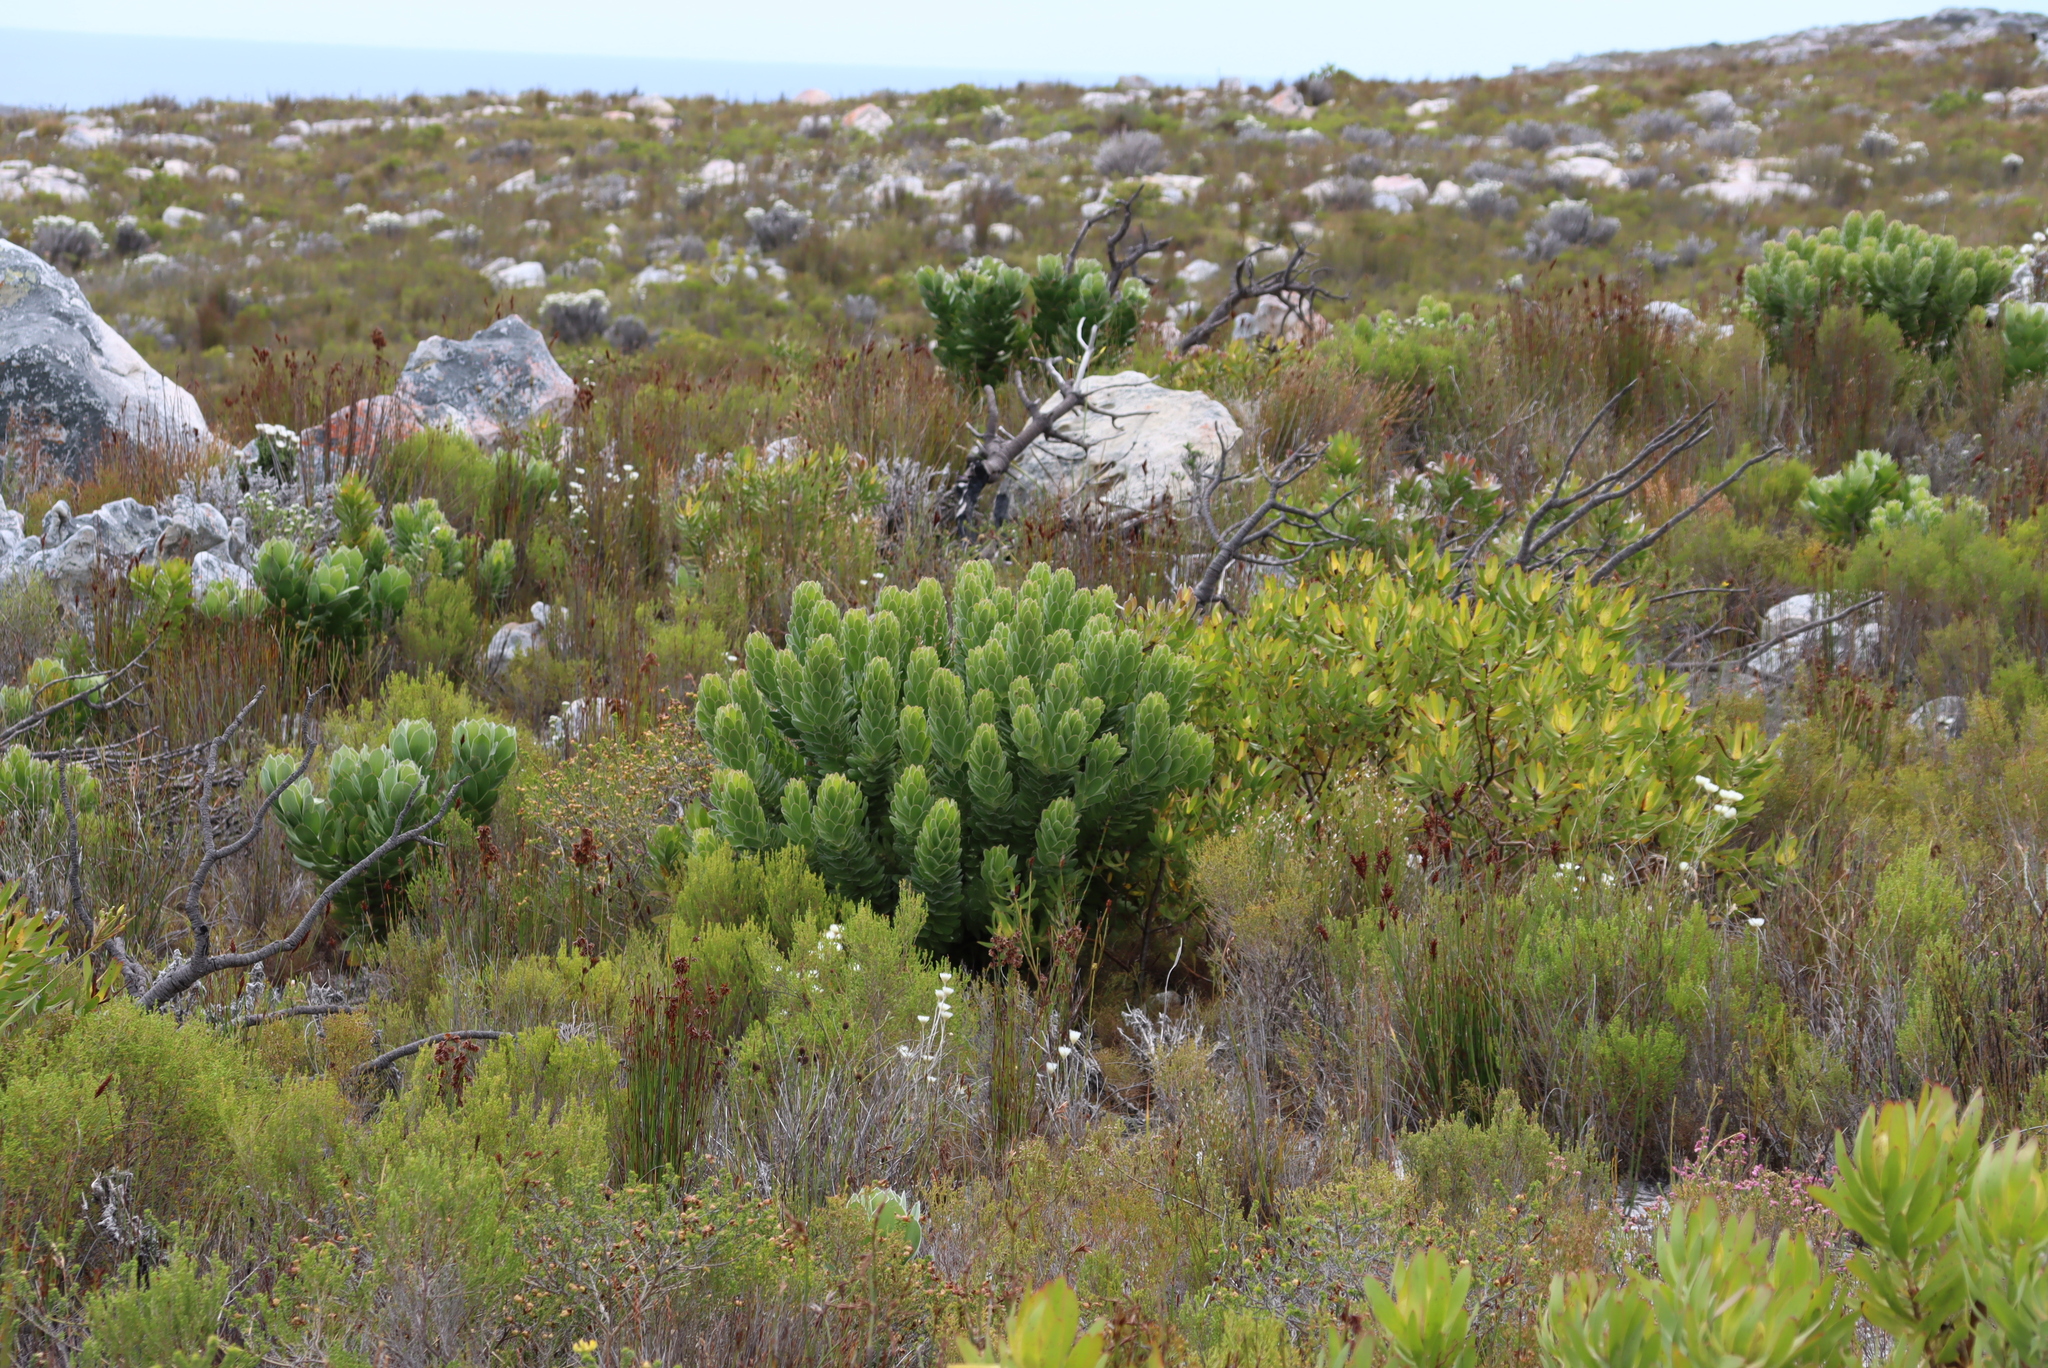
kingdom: Plantae
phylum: Tracheophyta
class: Magnoliopsida
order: Proteales
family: Proteaceae
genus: Mimetes
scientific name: Mimetes fimbriifolius
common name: Fringed bottlebrush
